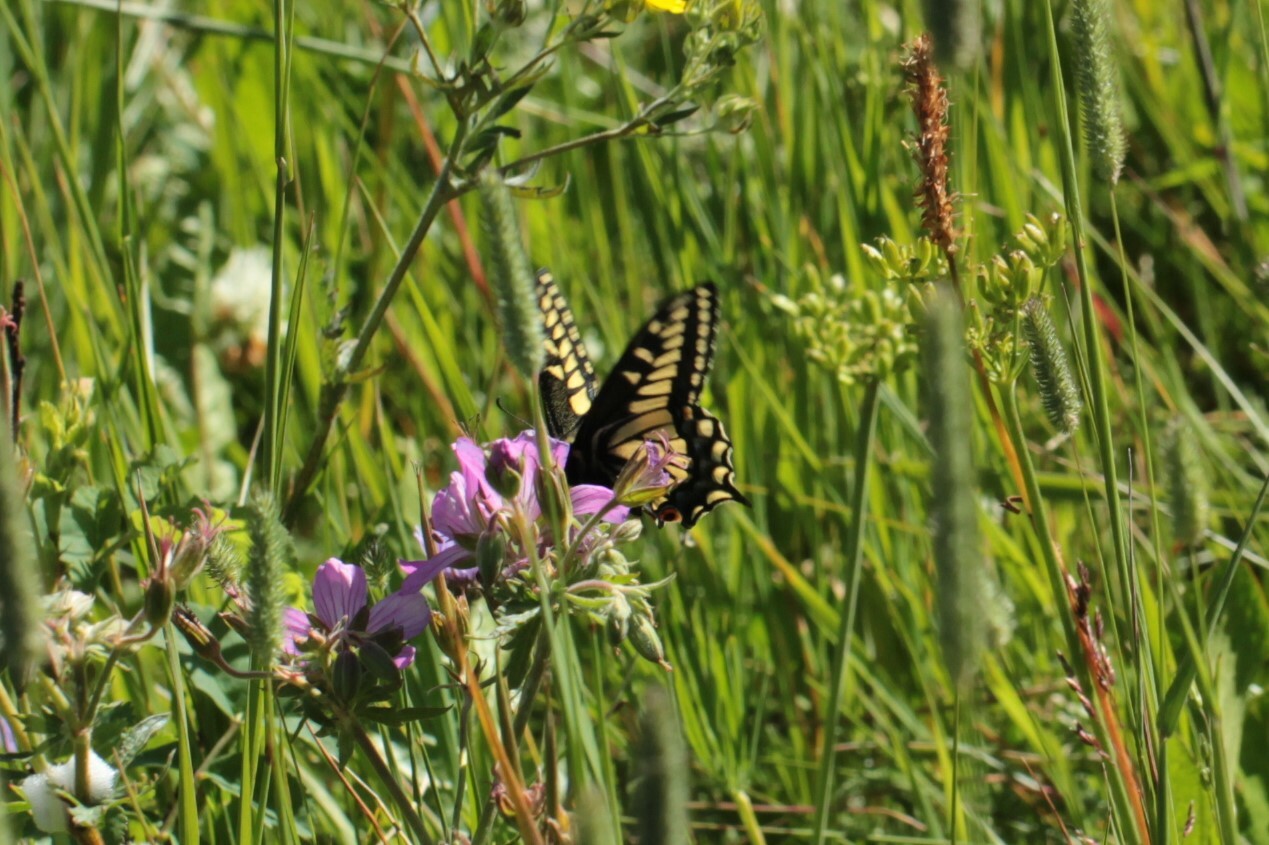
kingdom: Animalia
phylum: Arthropoda
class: Insecta
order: Lepidoptera
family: Papilionidae
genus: Papilio
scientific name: Papilio zelicaon
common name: Anise swallowtail
